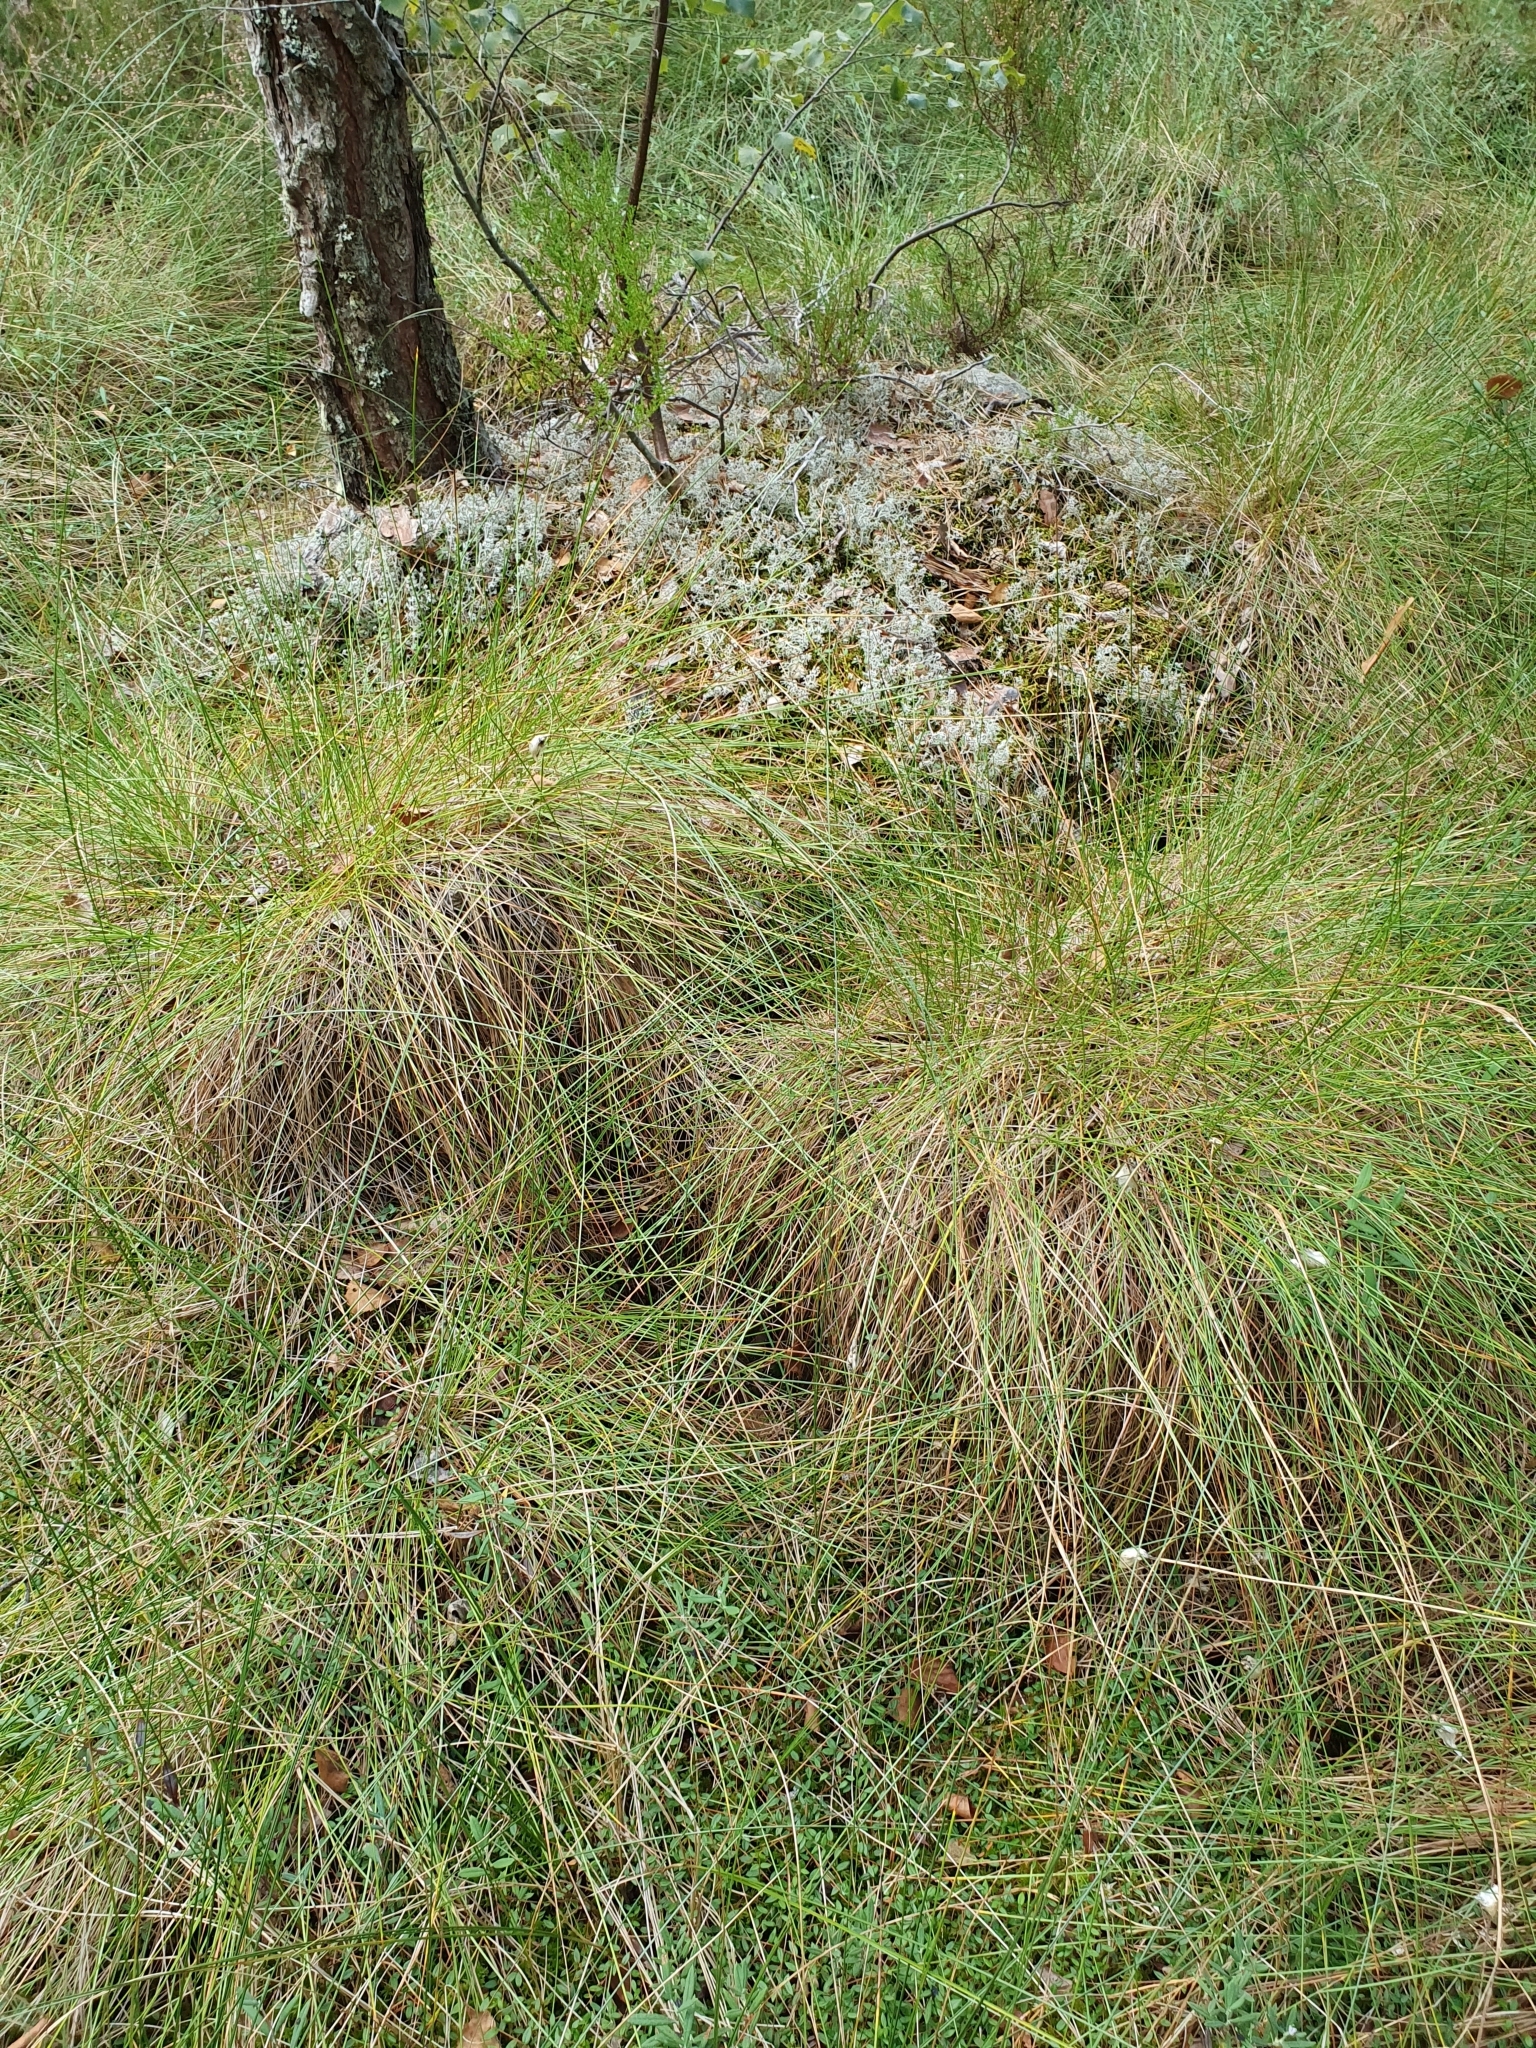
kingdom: Plantae
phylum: Tracheophyta
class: Liliopsida
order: Poales
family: Cyperaceae
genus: Eriophorum
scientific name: Eriophorum vaginatum
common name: Hare's-tail cottongrass
